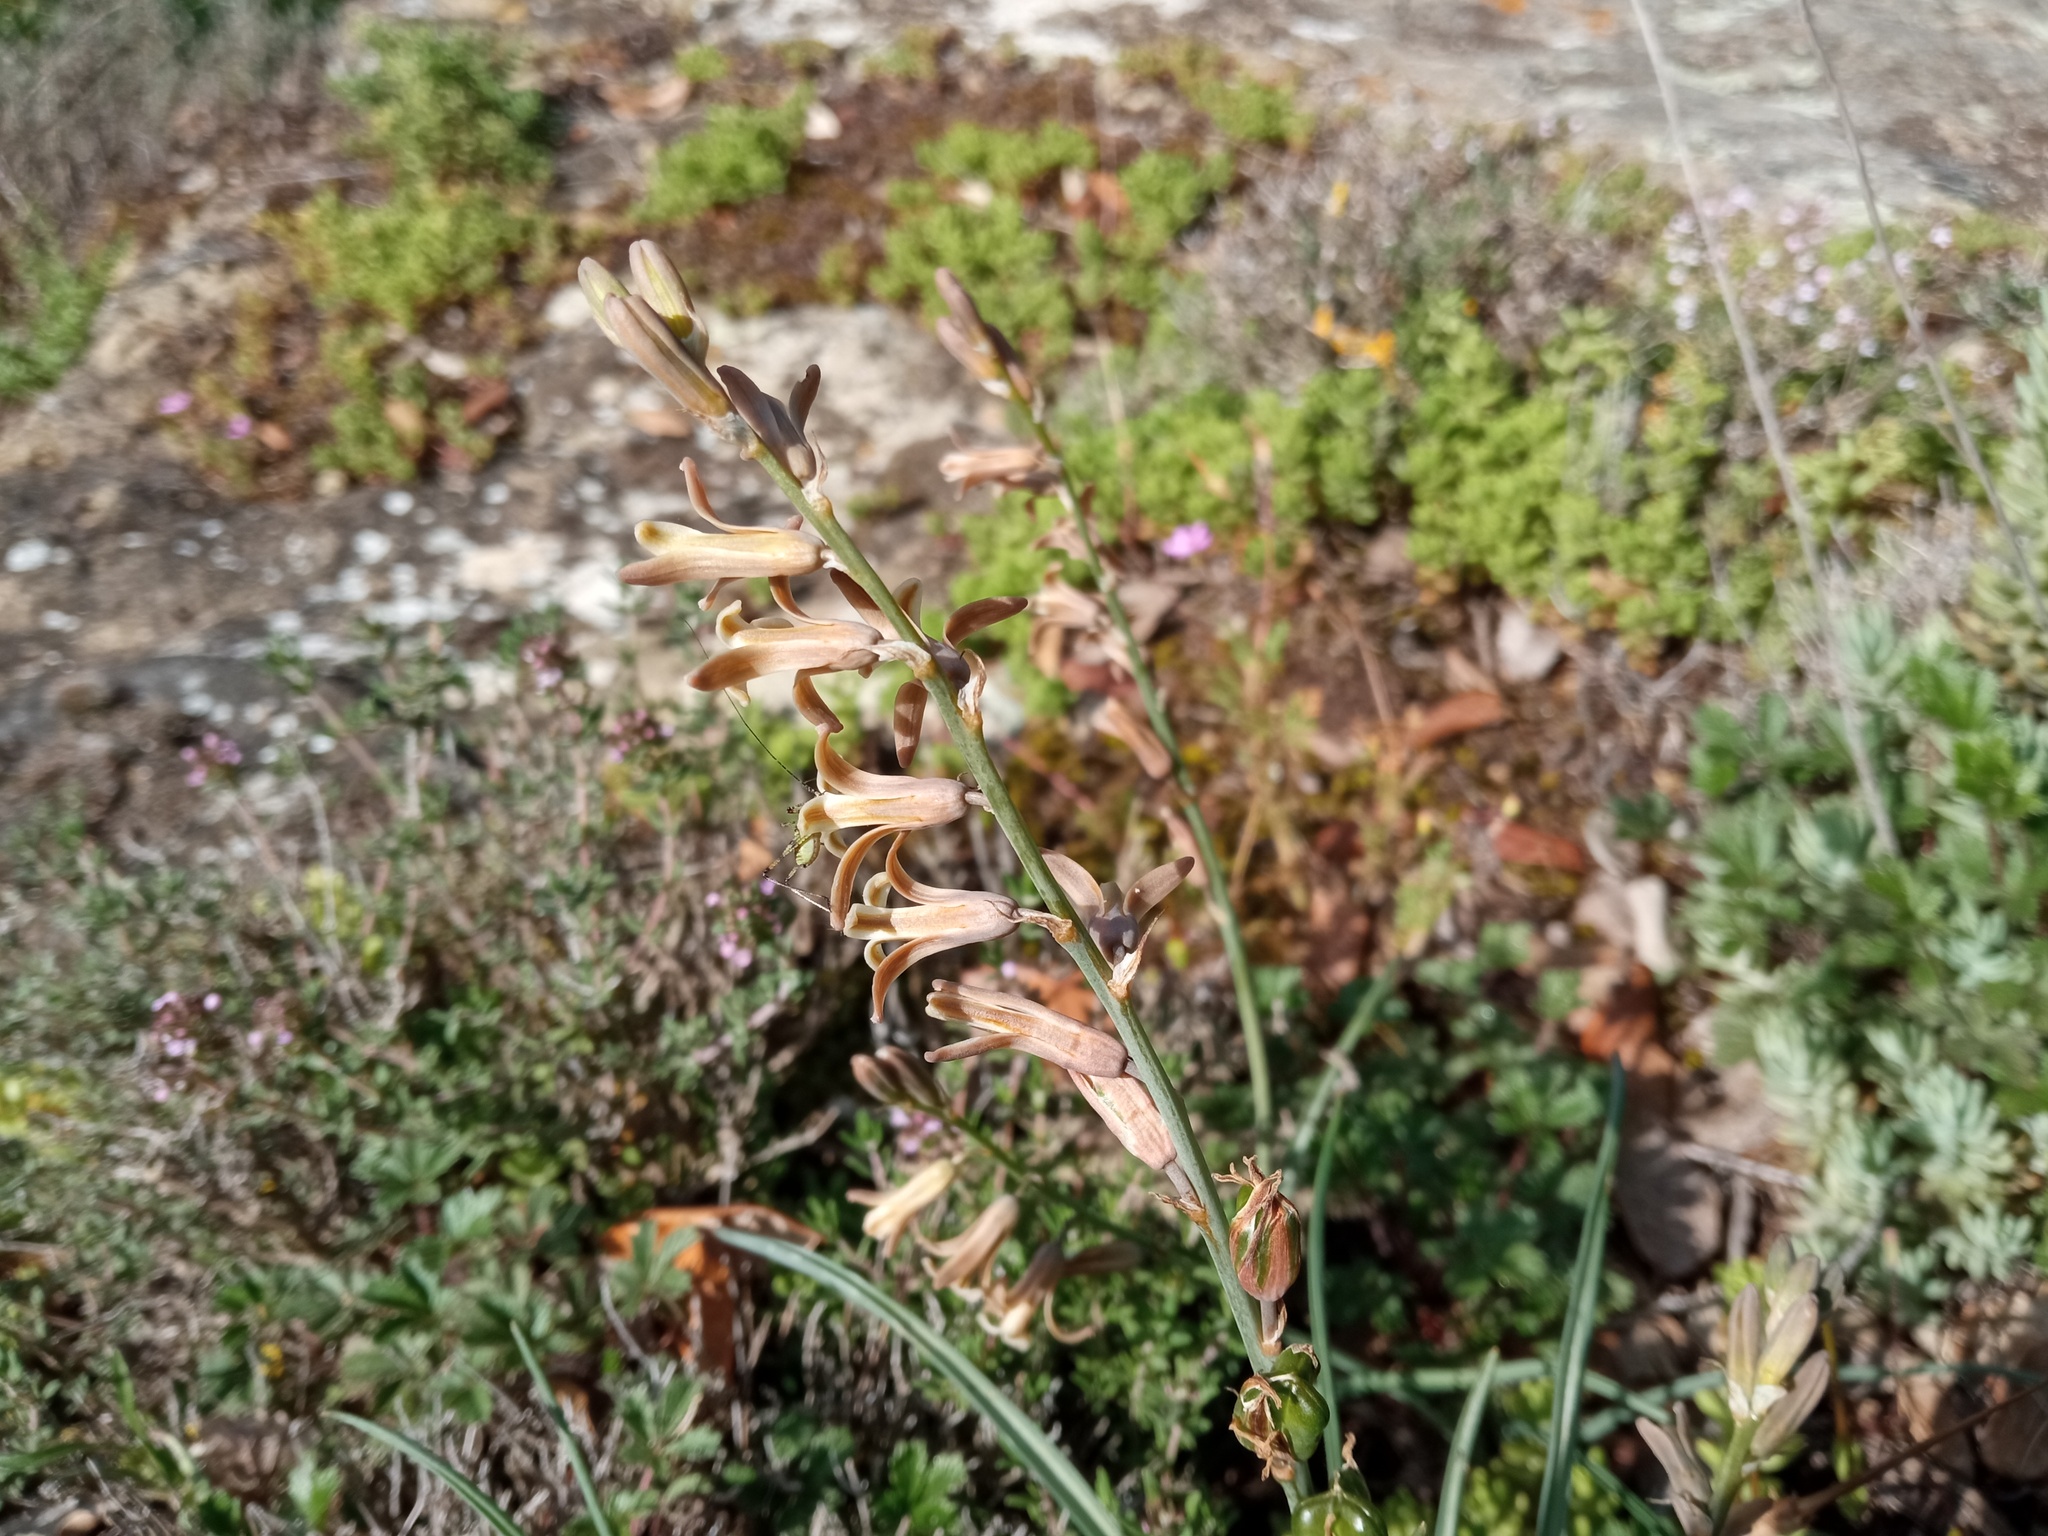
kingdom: Plantae
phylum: Tracheophyta
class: Liliopsida
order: Asparagales
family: Asparagaceae
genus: Dipcadi
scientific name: Dipcadi serotinum
